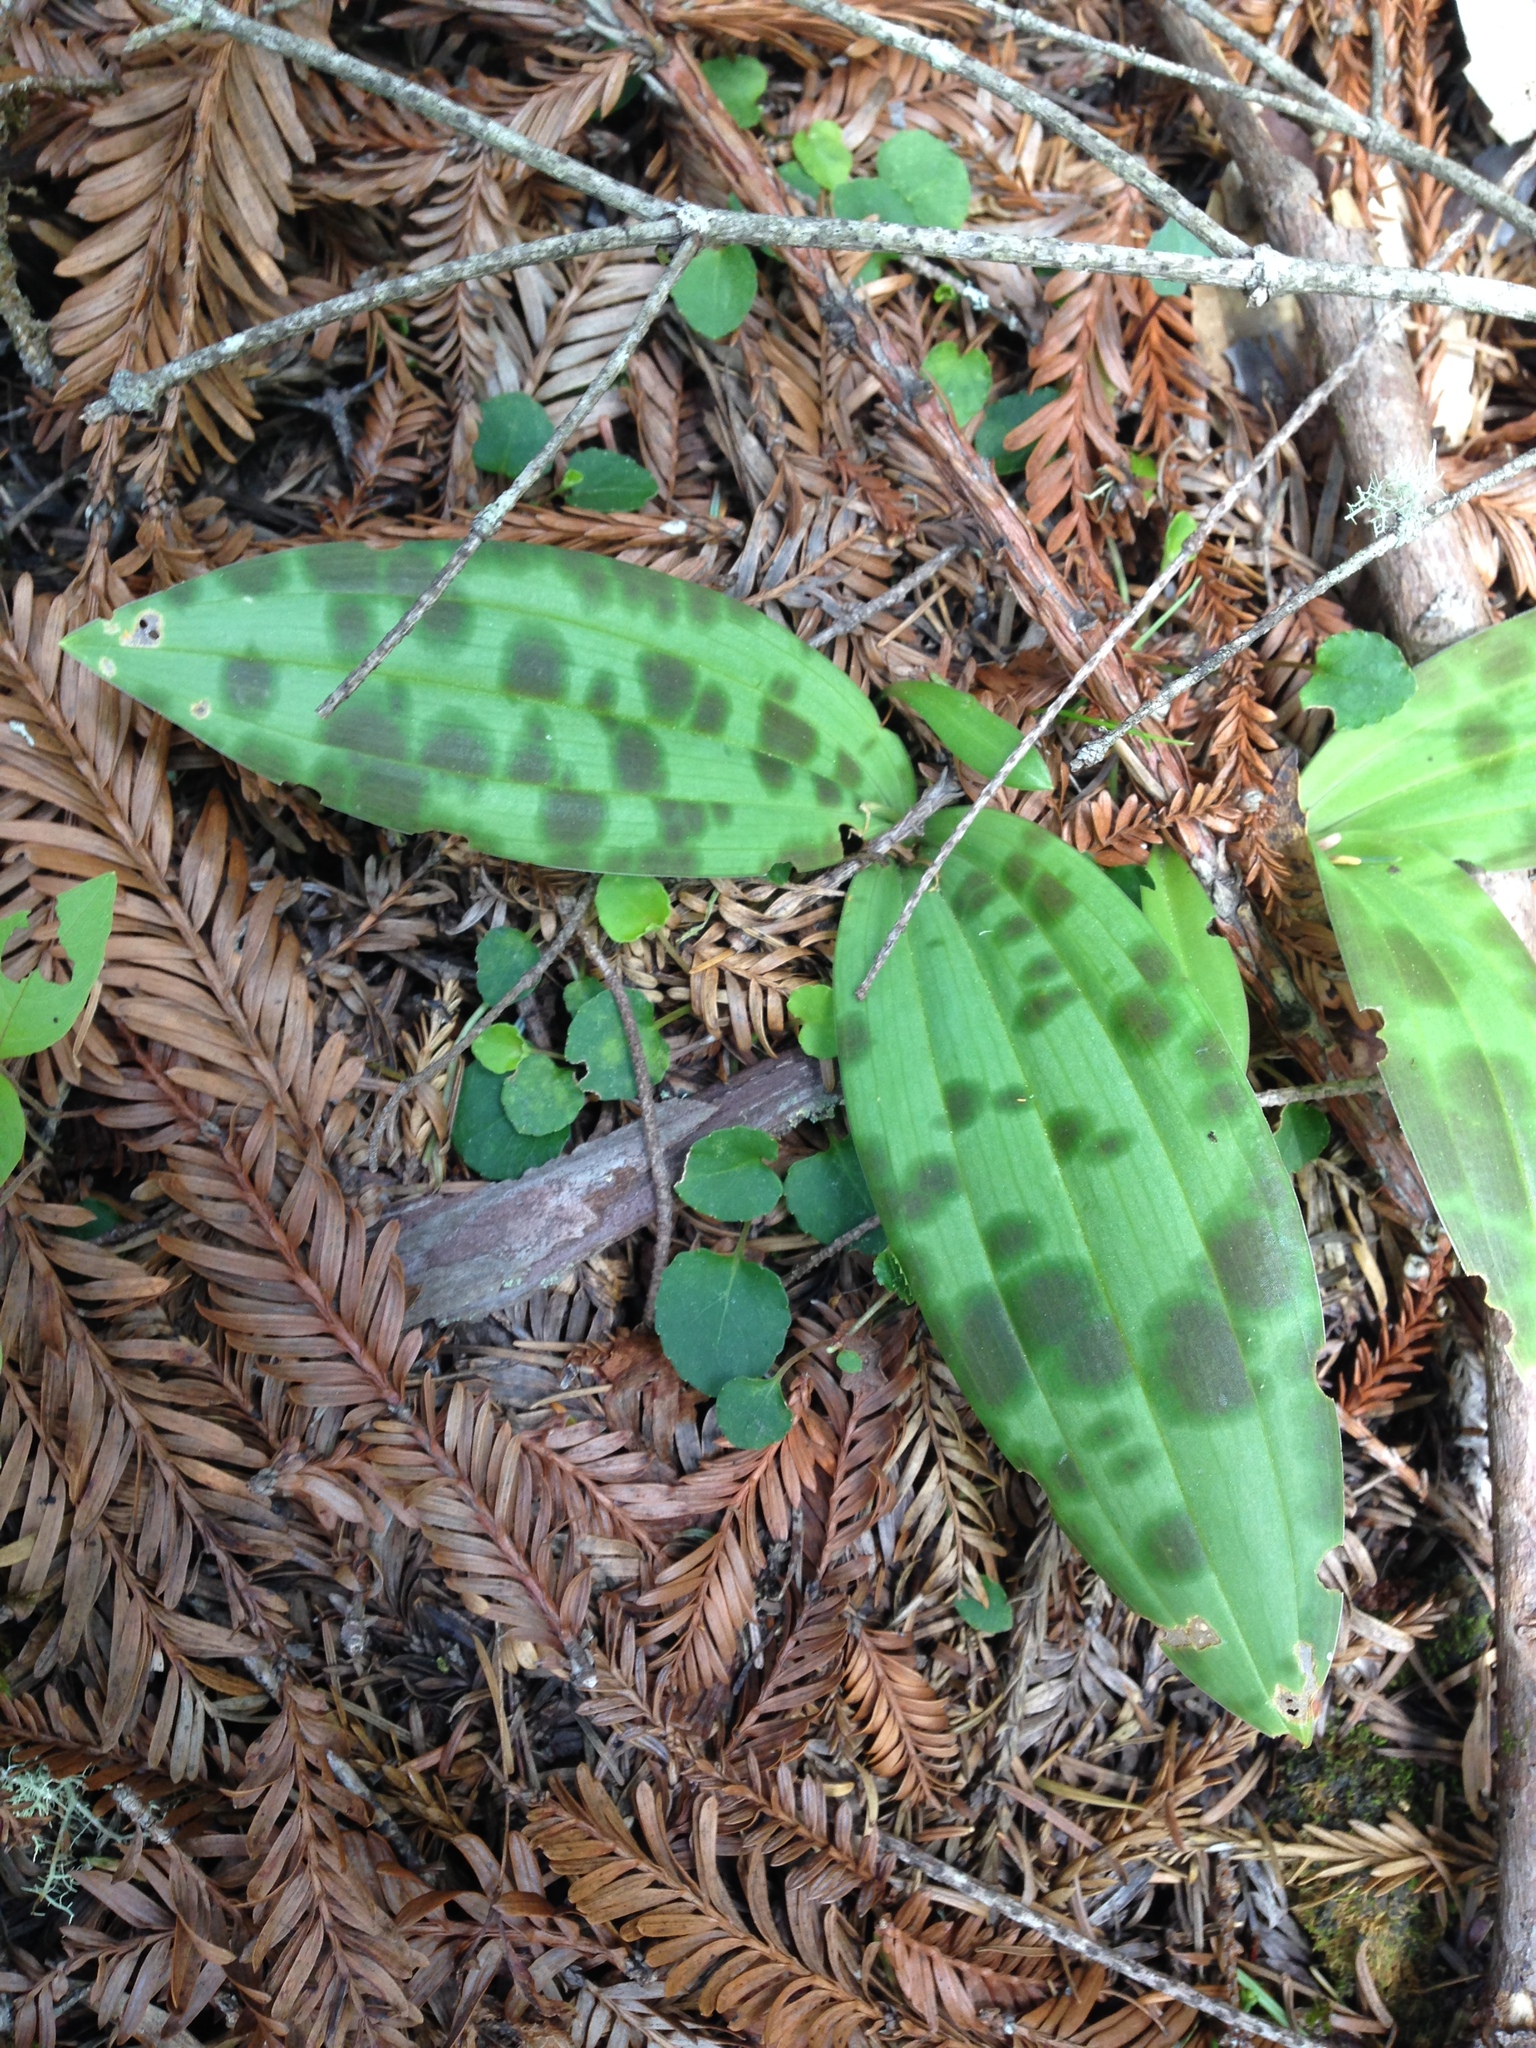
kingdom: Plantae
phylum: Tracheophyta
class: Liliopsida
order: Liliales
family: Liliaceae
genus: Scoliopus
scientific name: Scoliopus bigelovii
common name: Foetid adder's-tongue
